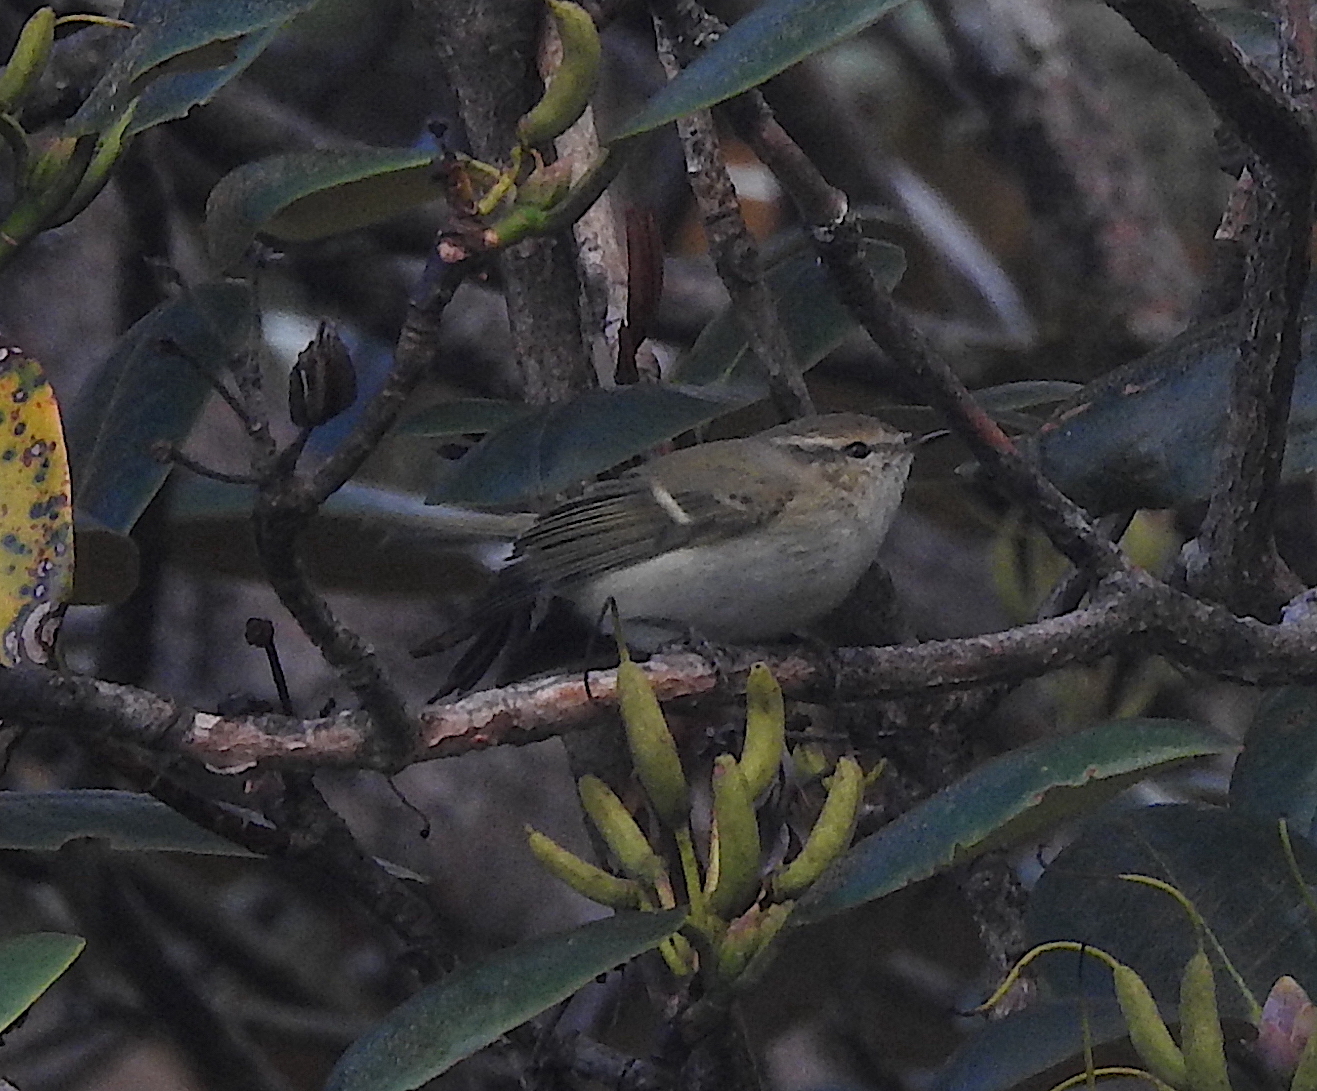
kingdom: Animalia
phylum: Chordata
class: Aves
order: Passeriformes
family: Phylloscopidae
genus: Phylloscopus
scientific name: Phylloscopus humei
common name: Hume's leaf warbler
